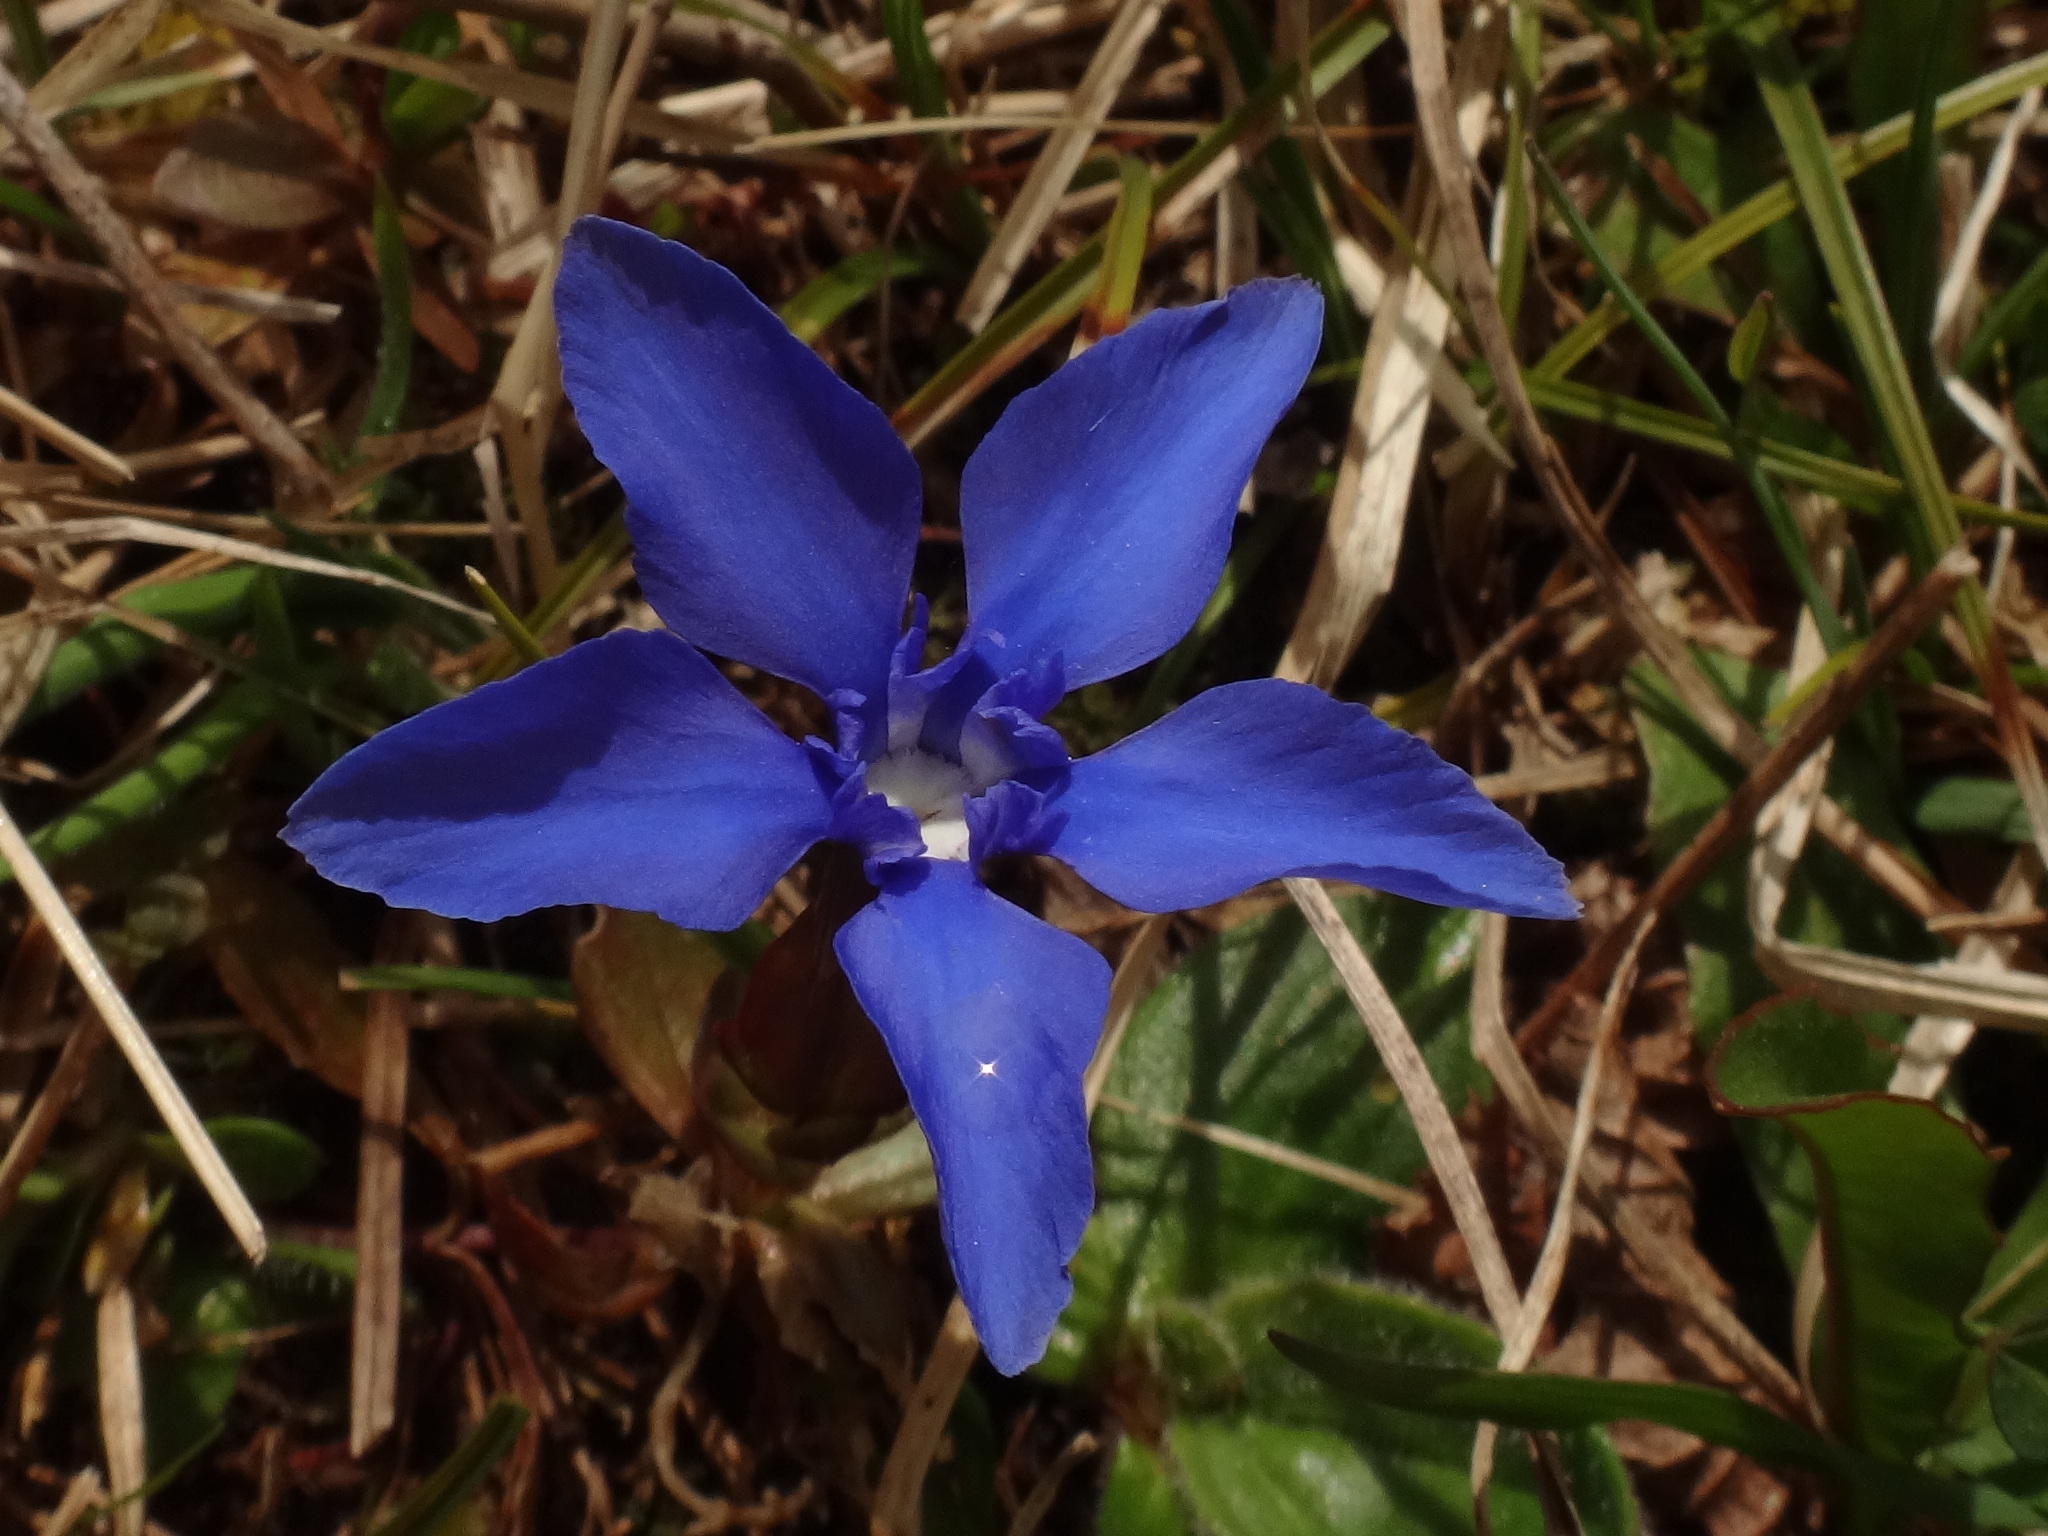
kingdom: Plantae
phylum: Tracheophyta
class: Magnoliopsida
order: Gentianales
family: Gentianaceae
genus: Gentiana
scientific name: Gentiana verna
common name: Spring gentian
